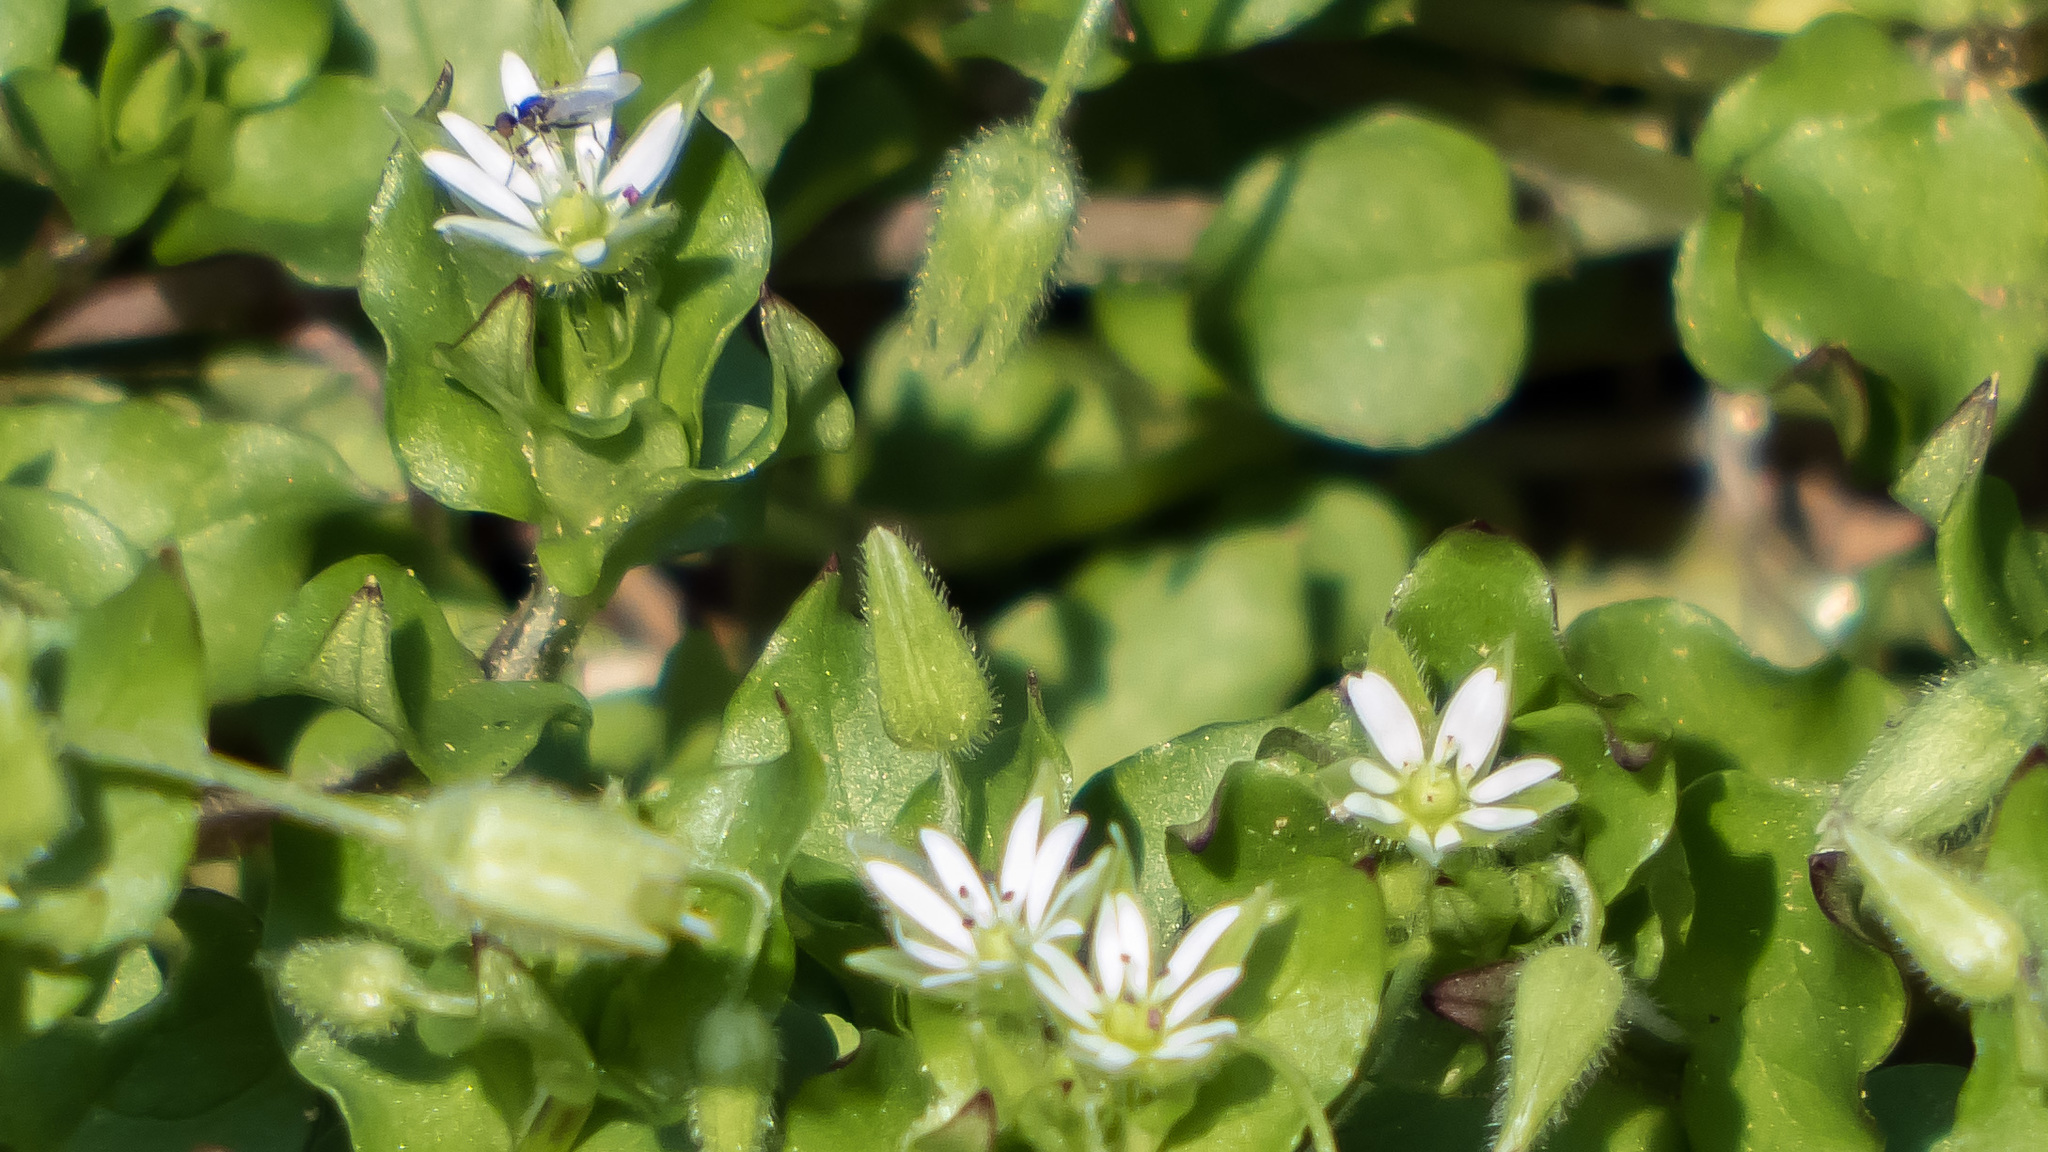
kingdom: Plantae
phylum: Tracheophyta
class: Magnoliopsida
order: Caryophyllales
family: Caryophyllaceae
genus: Stellaria
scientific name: Stellaria media
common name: Common chickweed
